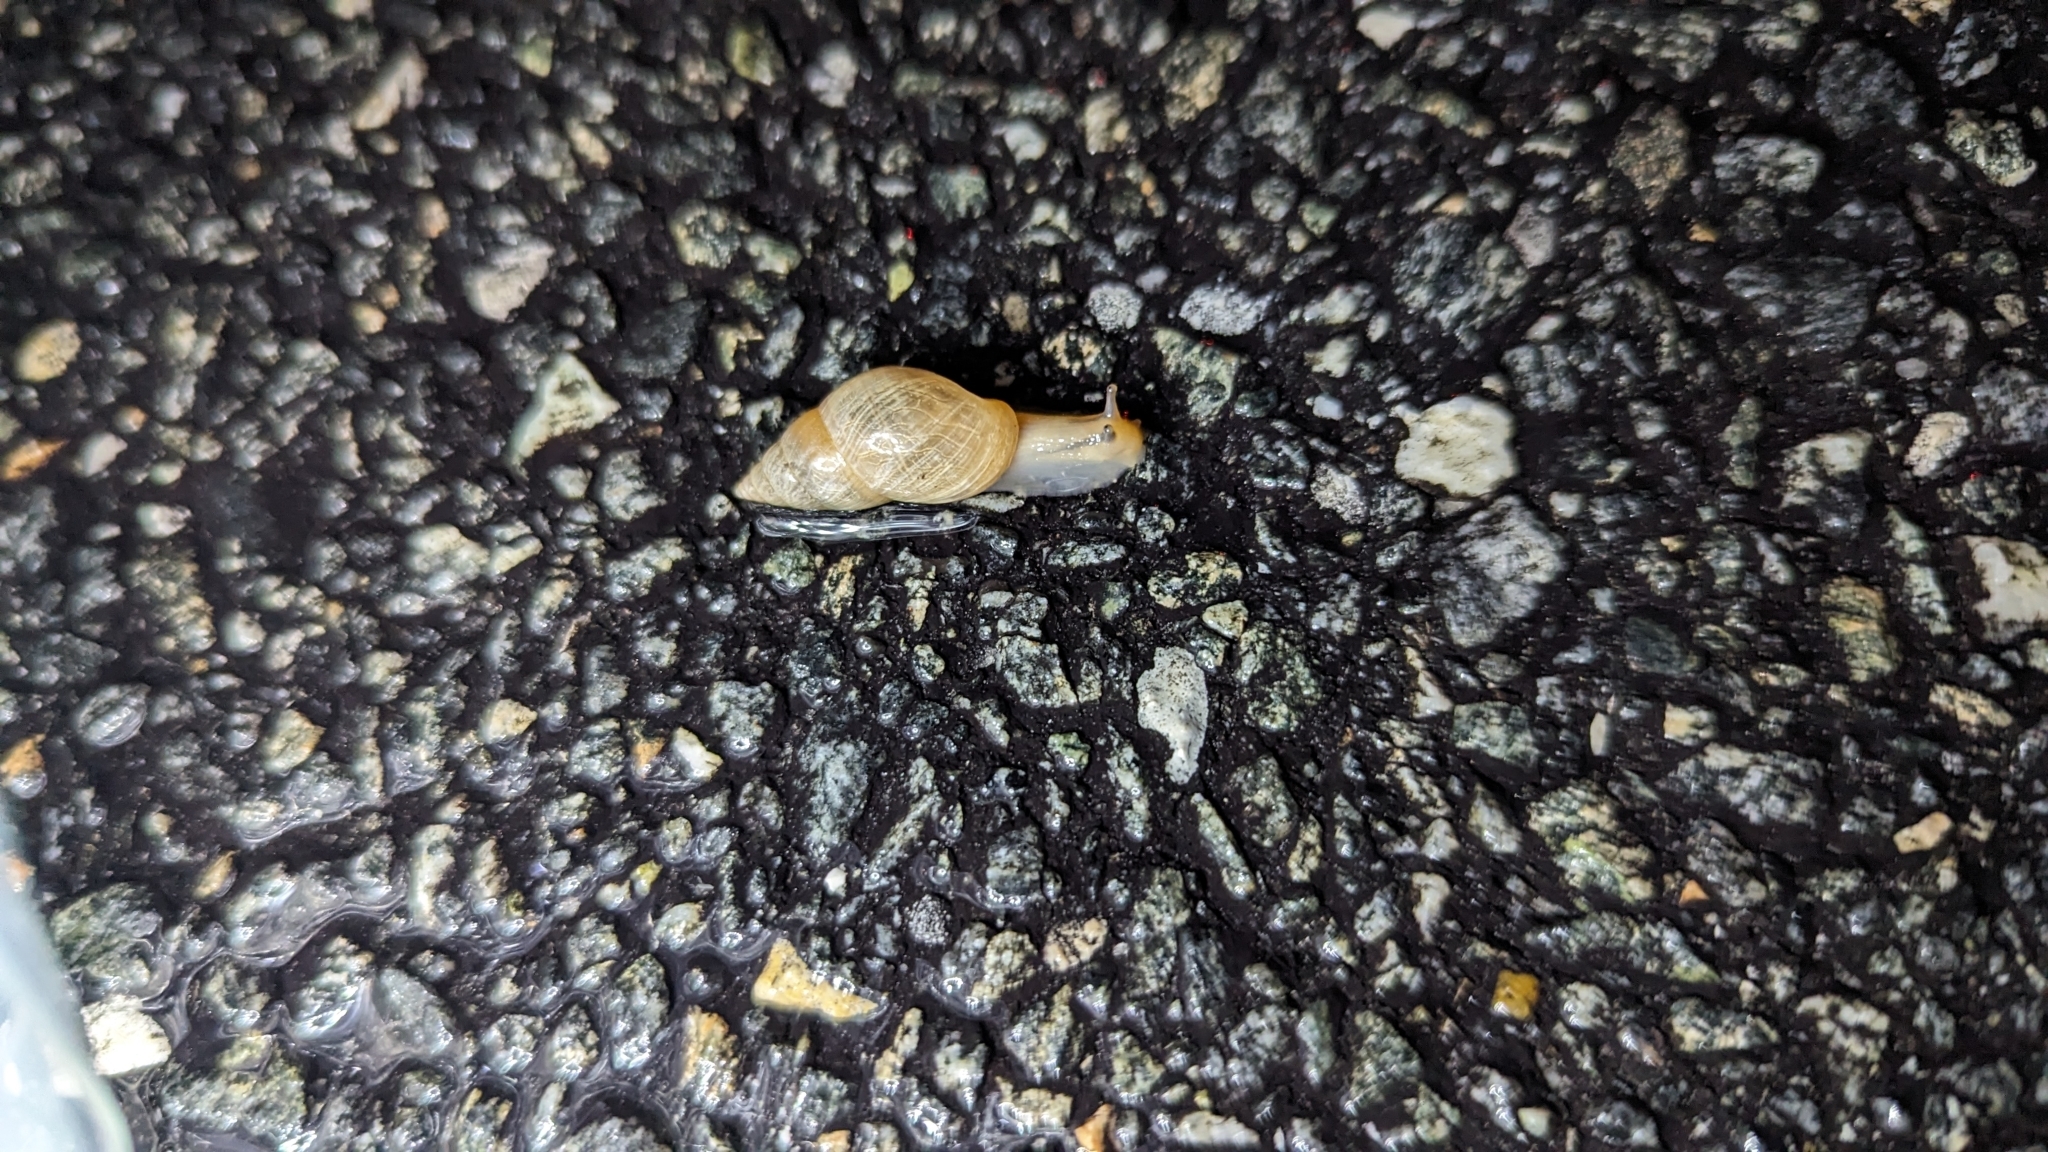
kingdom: Animalia
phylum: Mollusca
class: Gastropoda
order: Stylommatophora
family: Bulimulidae
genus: Bulimulus
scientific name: Bulimulus bonariensis
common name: Snail
